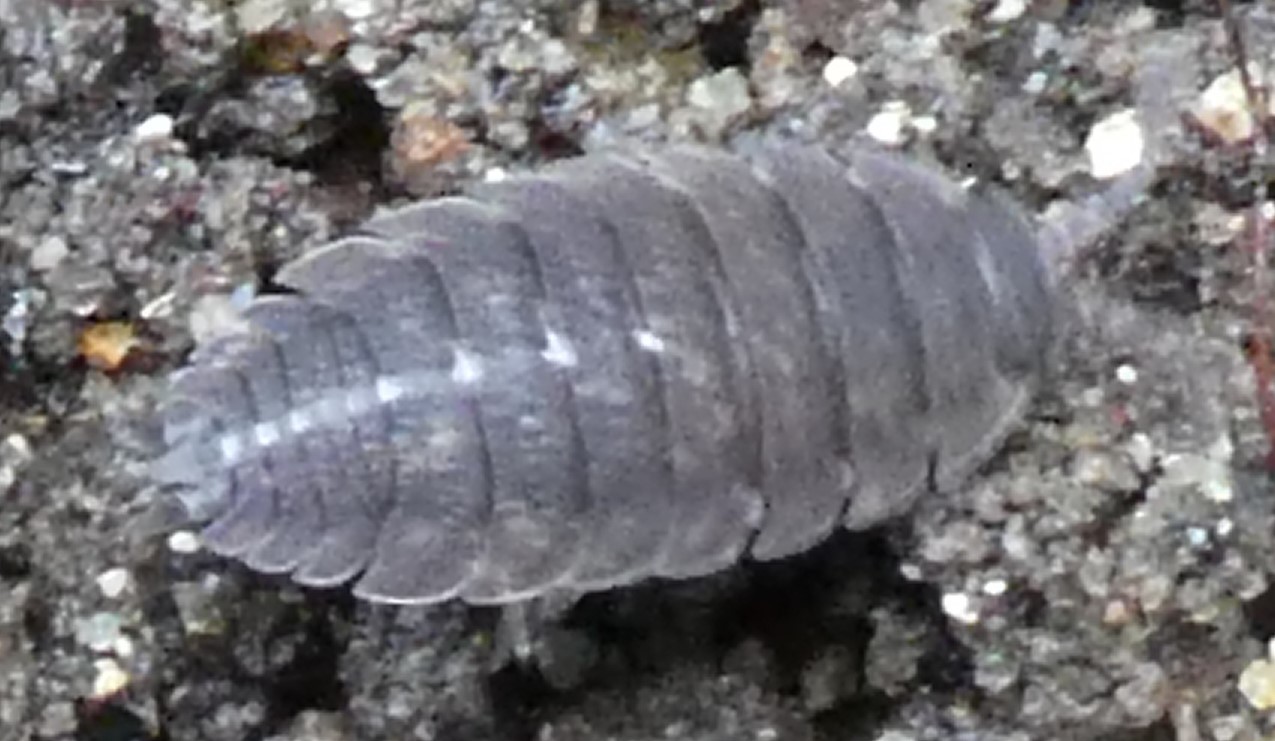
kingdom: Animalia
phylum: Arthropoda
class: Malacostraca
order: Isopoda
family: Porcellionidae
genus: Porcellio
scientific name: Porcellio scaber
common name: Common rough woodlouse
